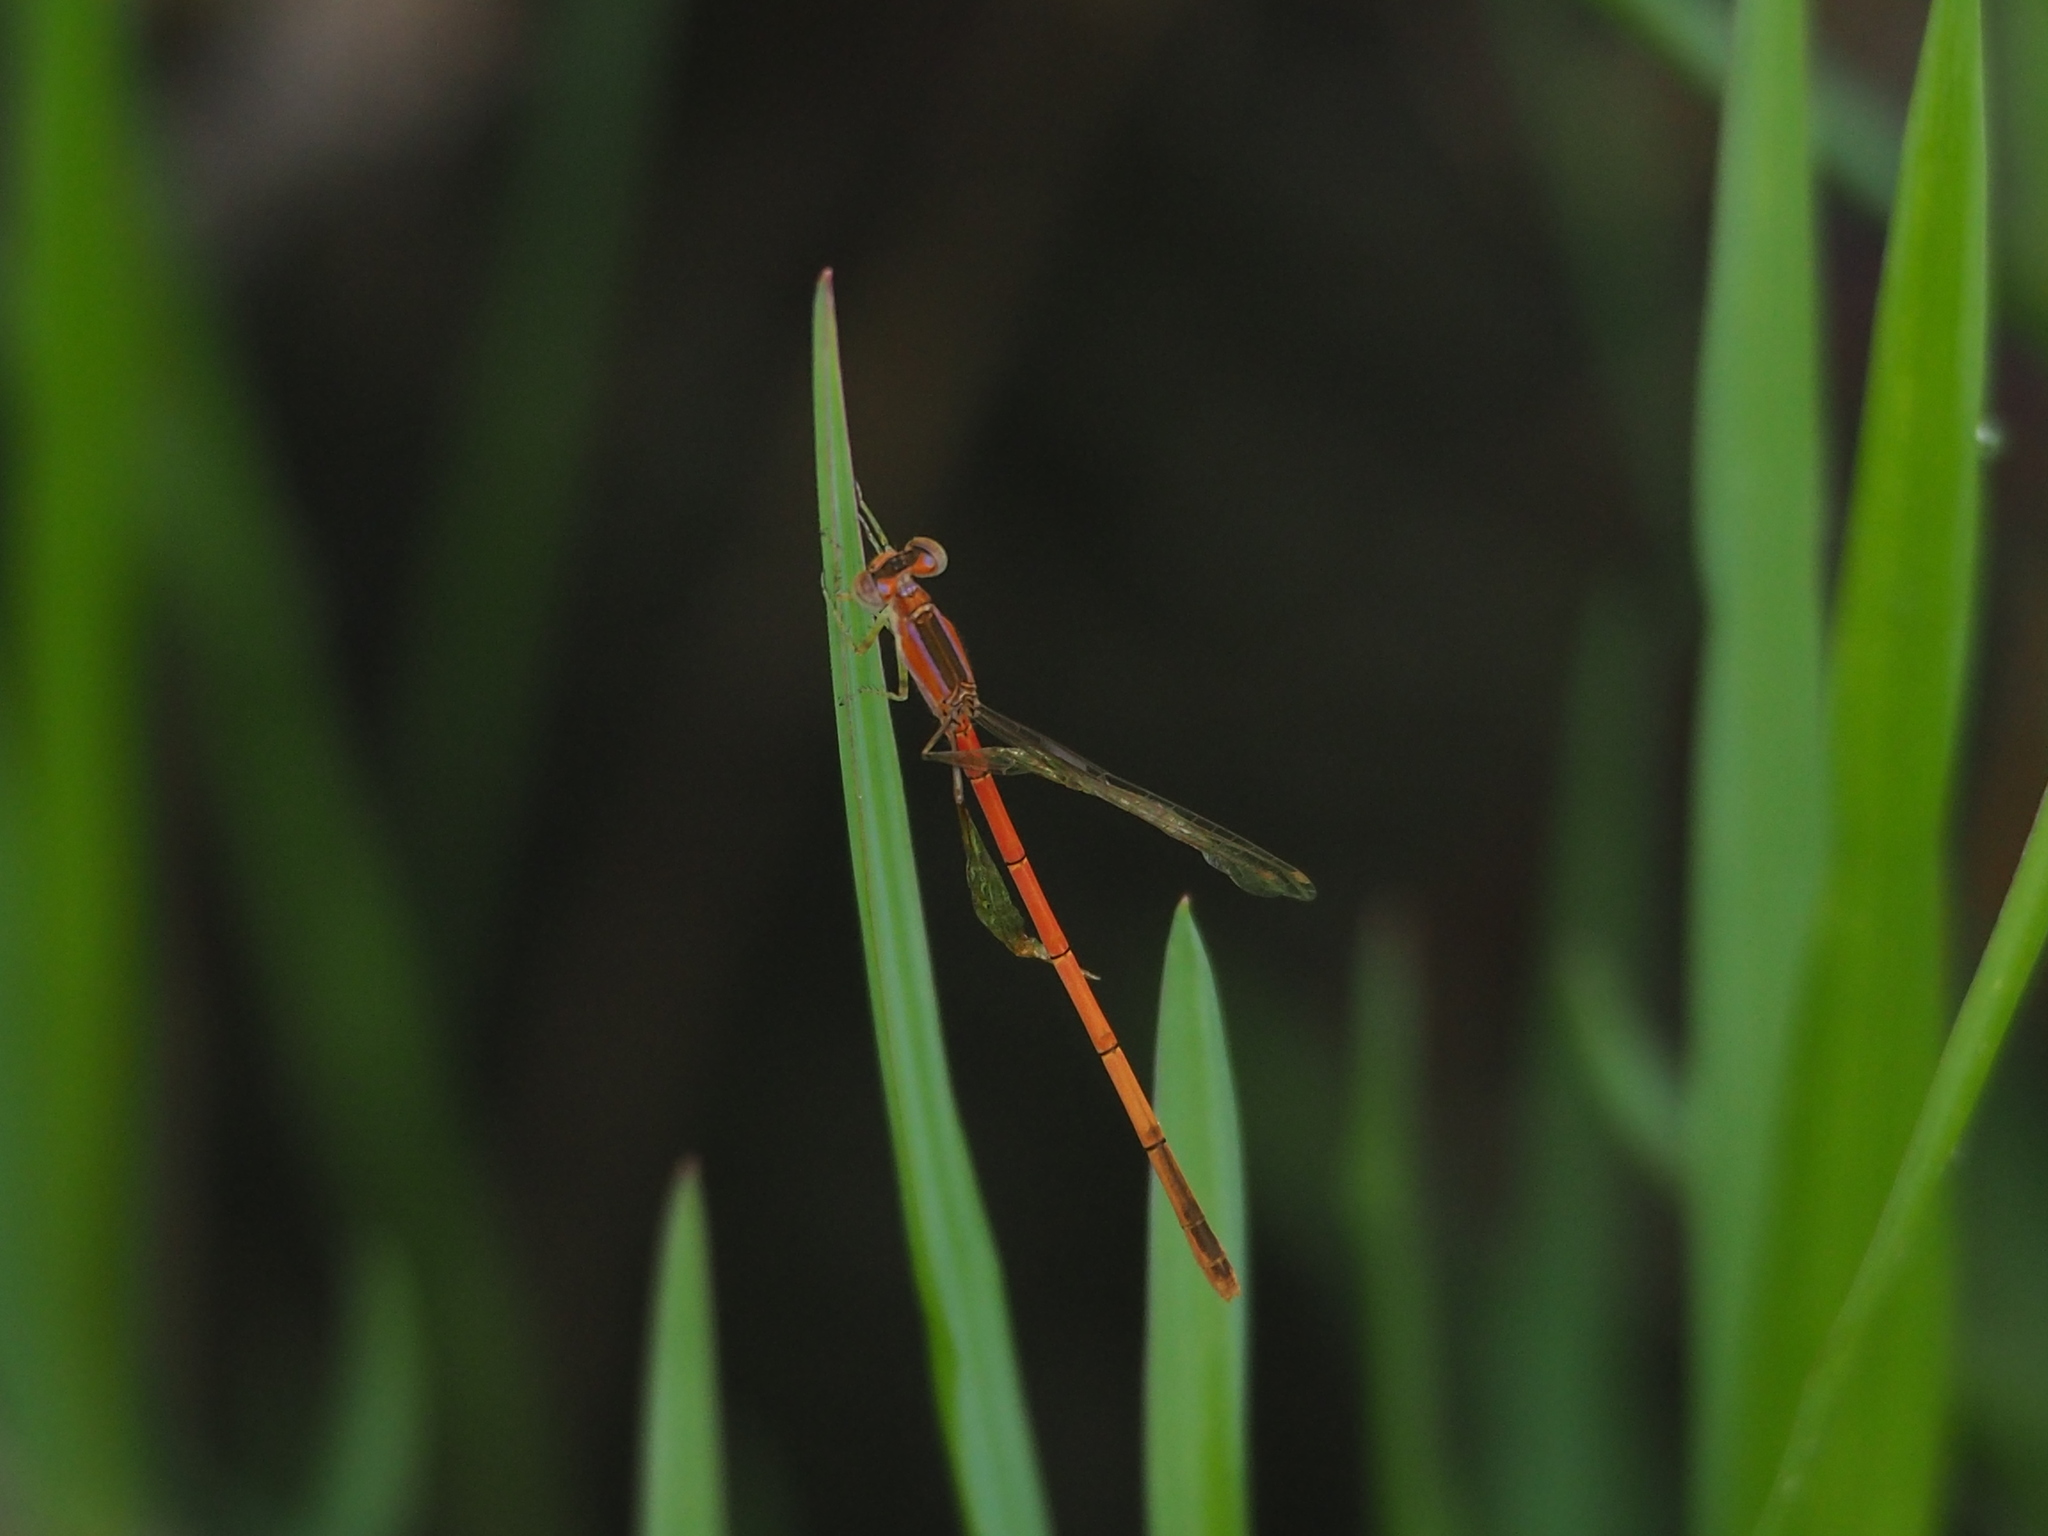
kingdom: Animalia
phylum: Arthropoda
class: Insecta
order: Odonata
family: Coenagrionidae
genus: Agriocnemis
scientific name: Agriocnemis pygmaea
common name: Pygmy wisp
